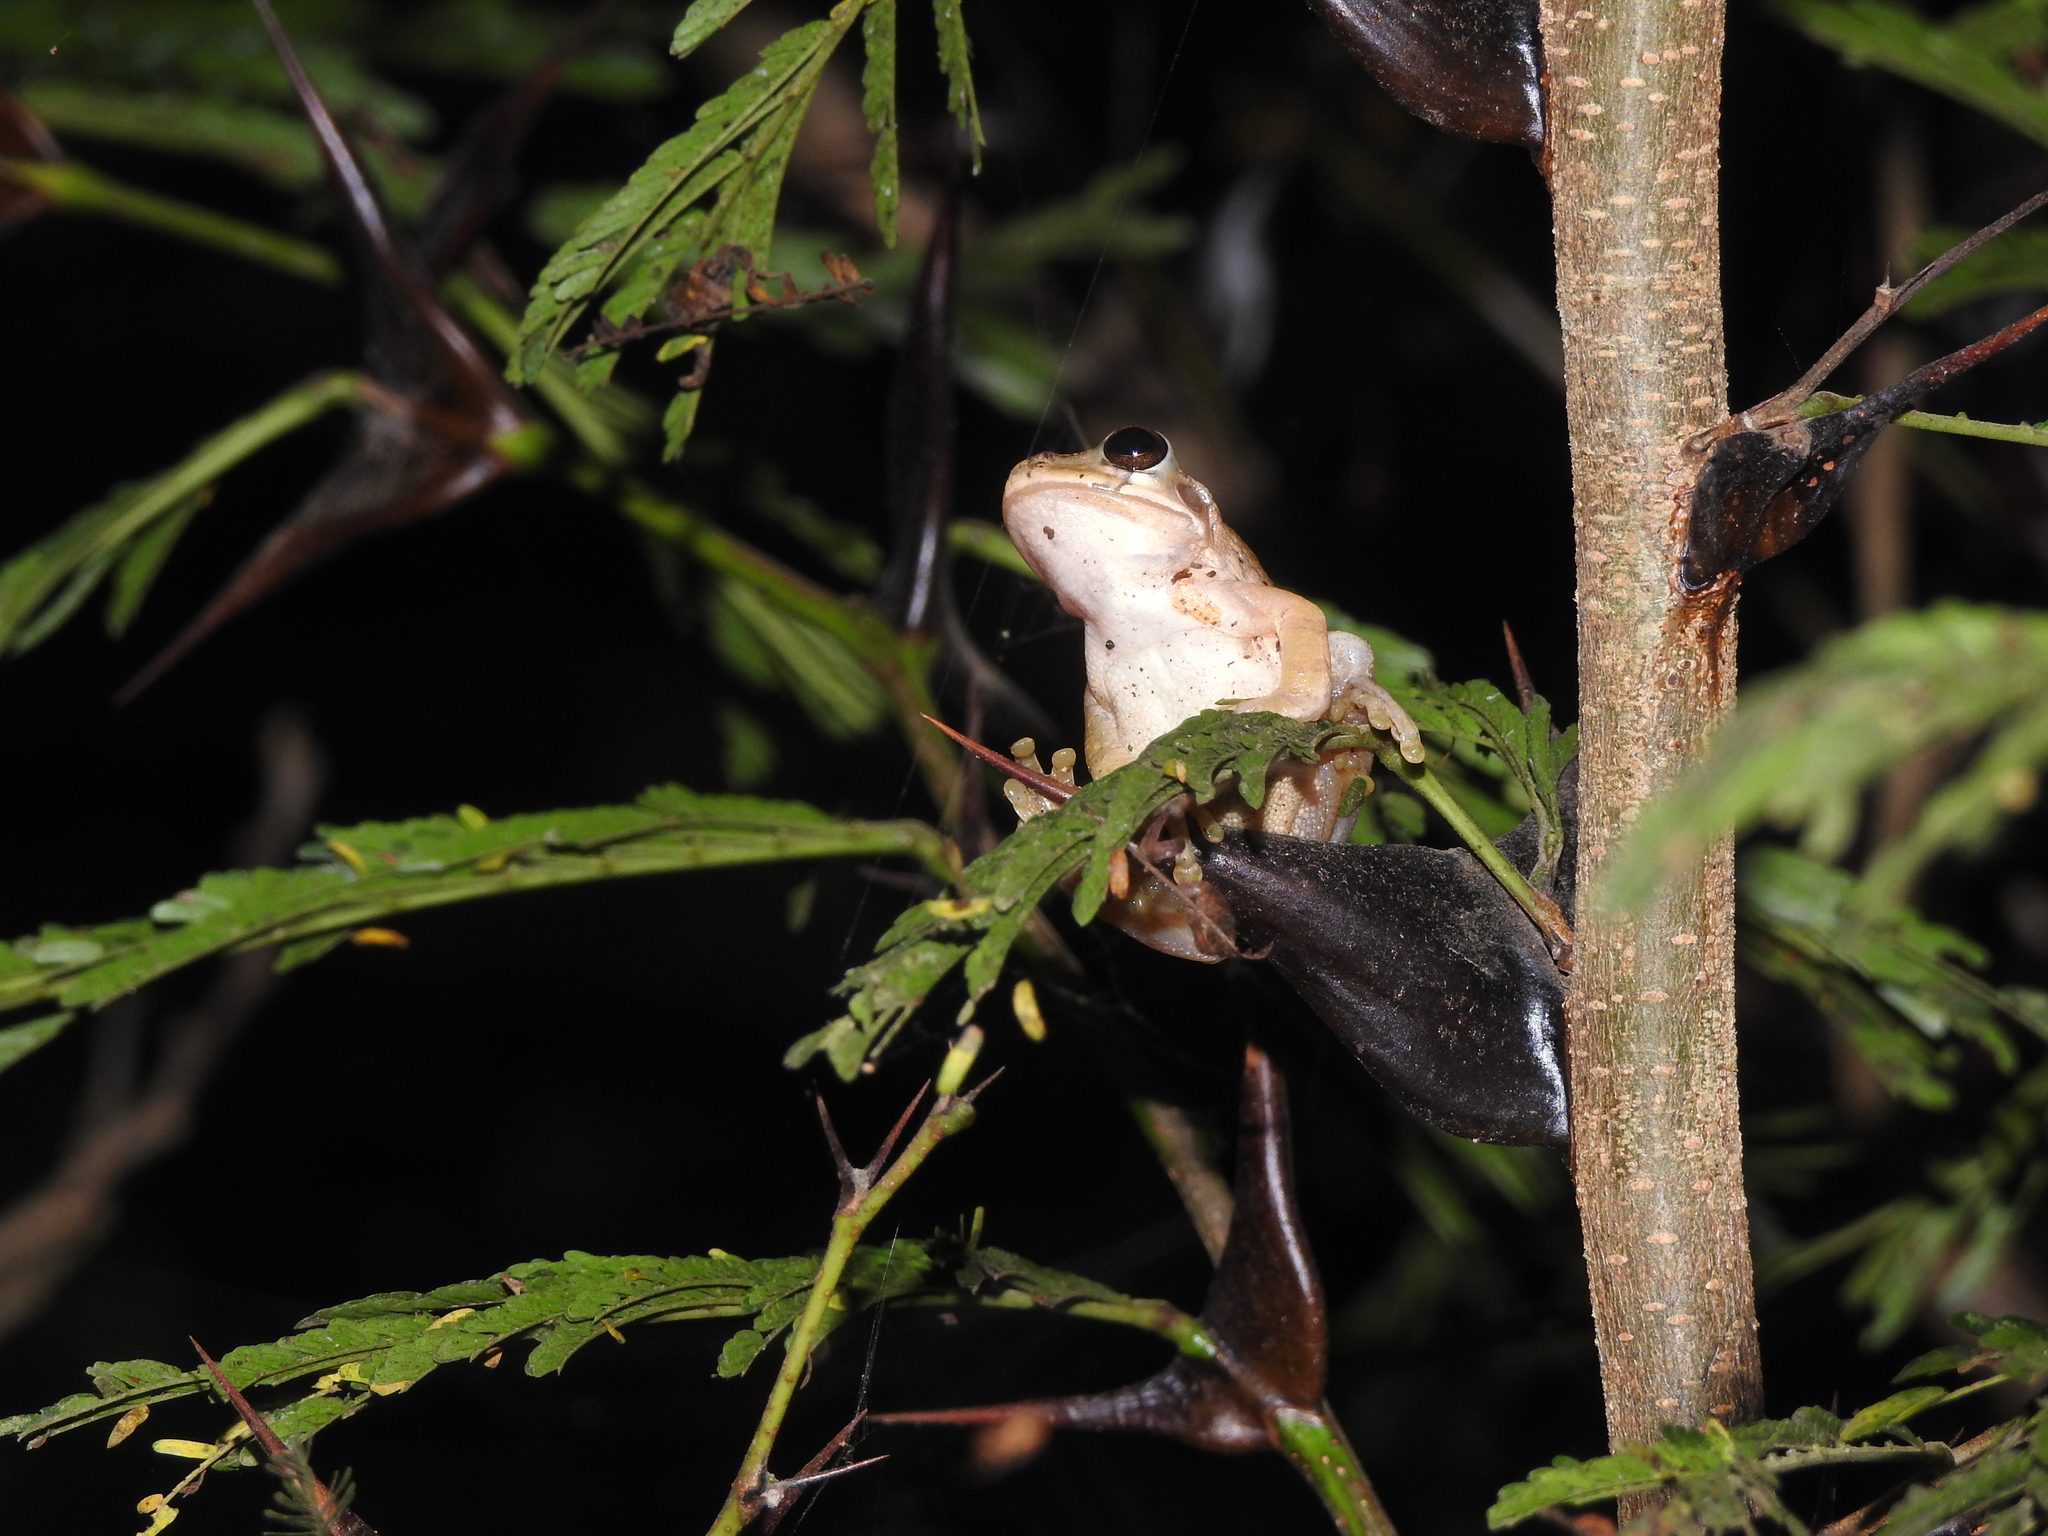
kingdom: Animalia
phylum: Chordata
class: Amphibia
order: Anura
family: Hylidae
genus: Smilisca
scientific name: Smilisca baudinii
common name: Mexican smilisca
